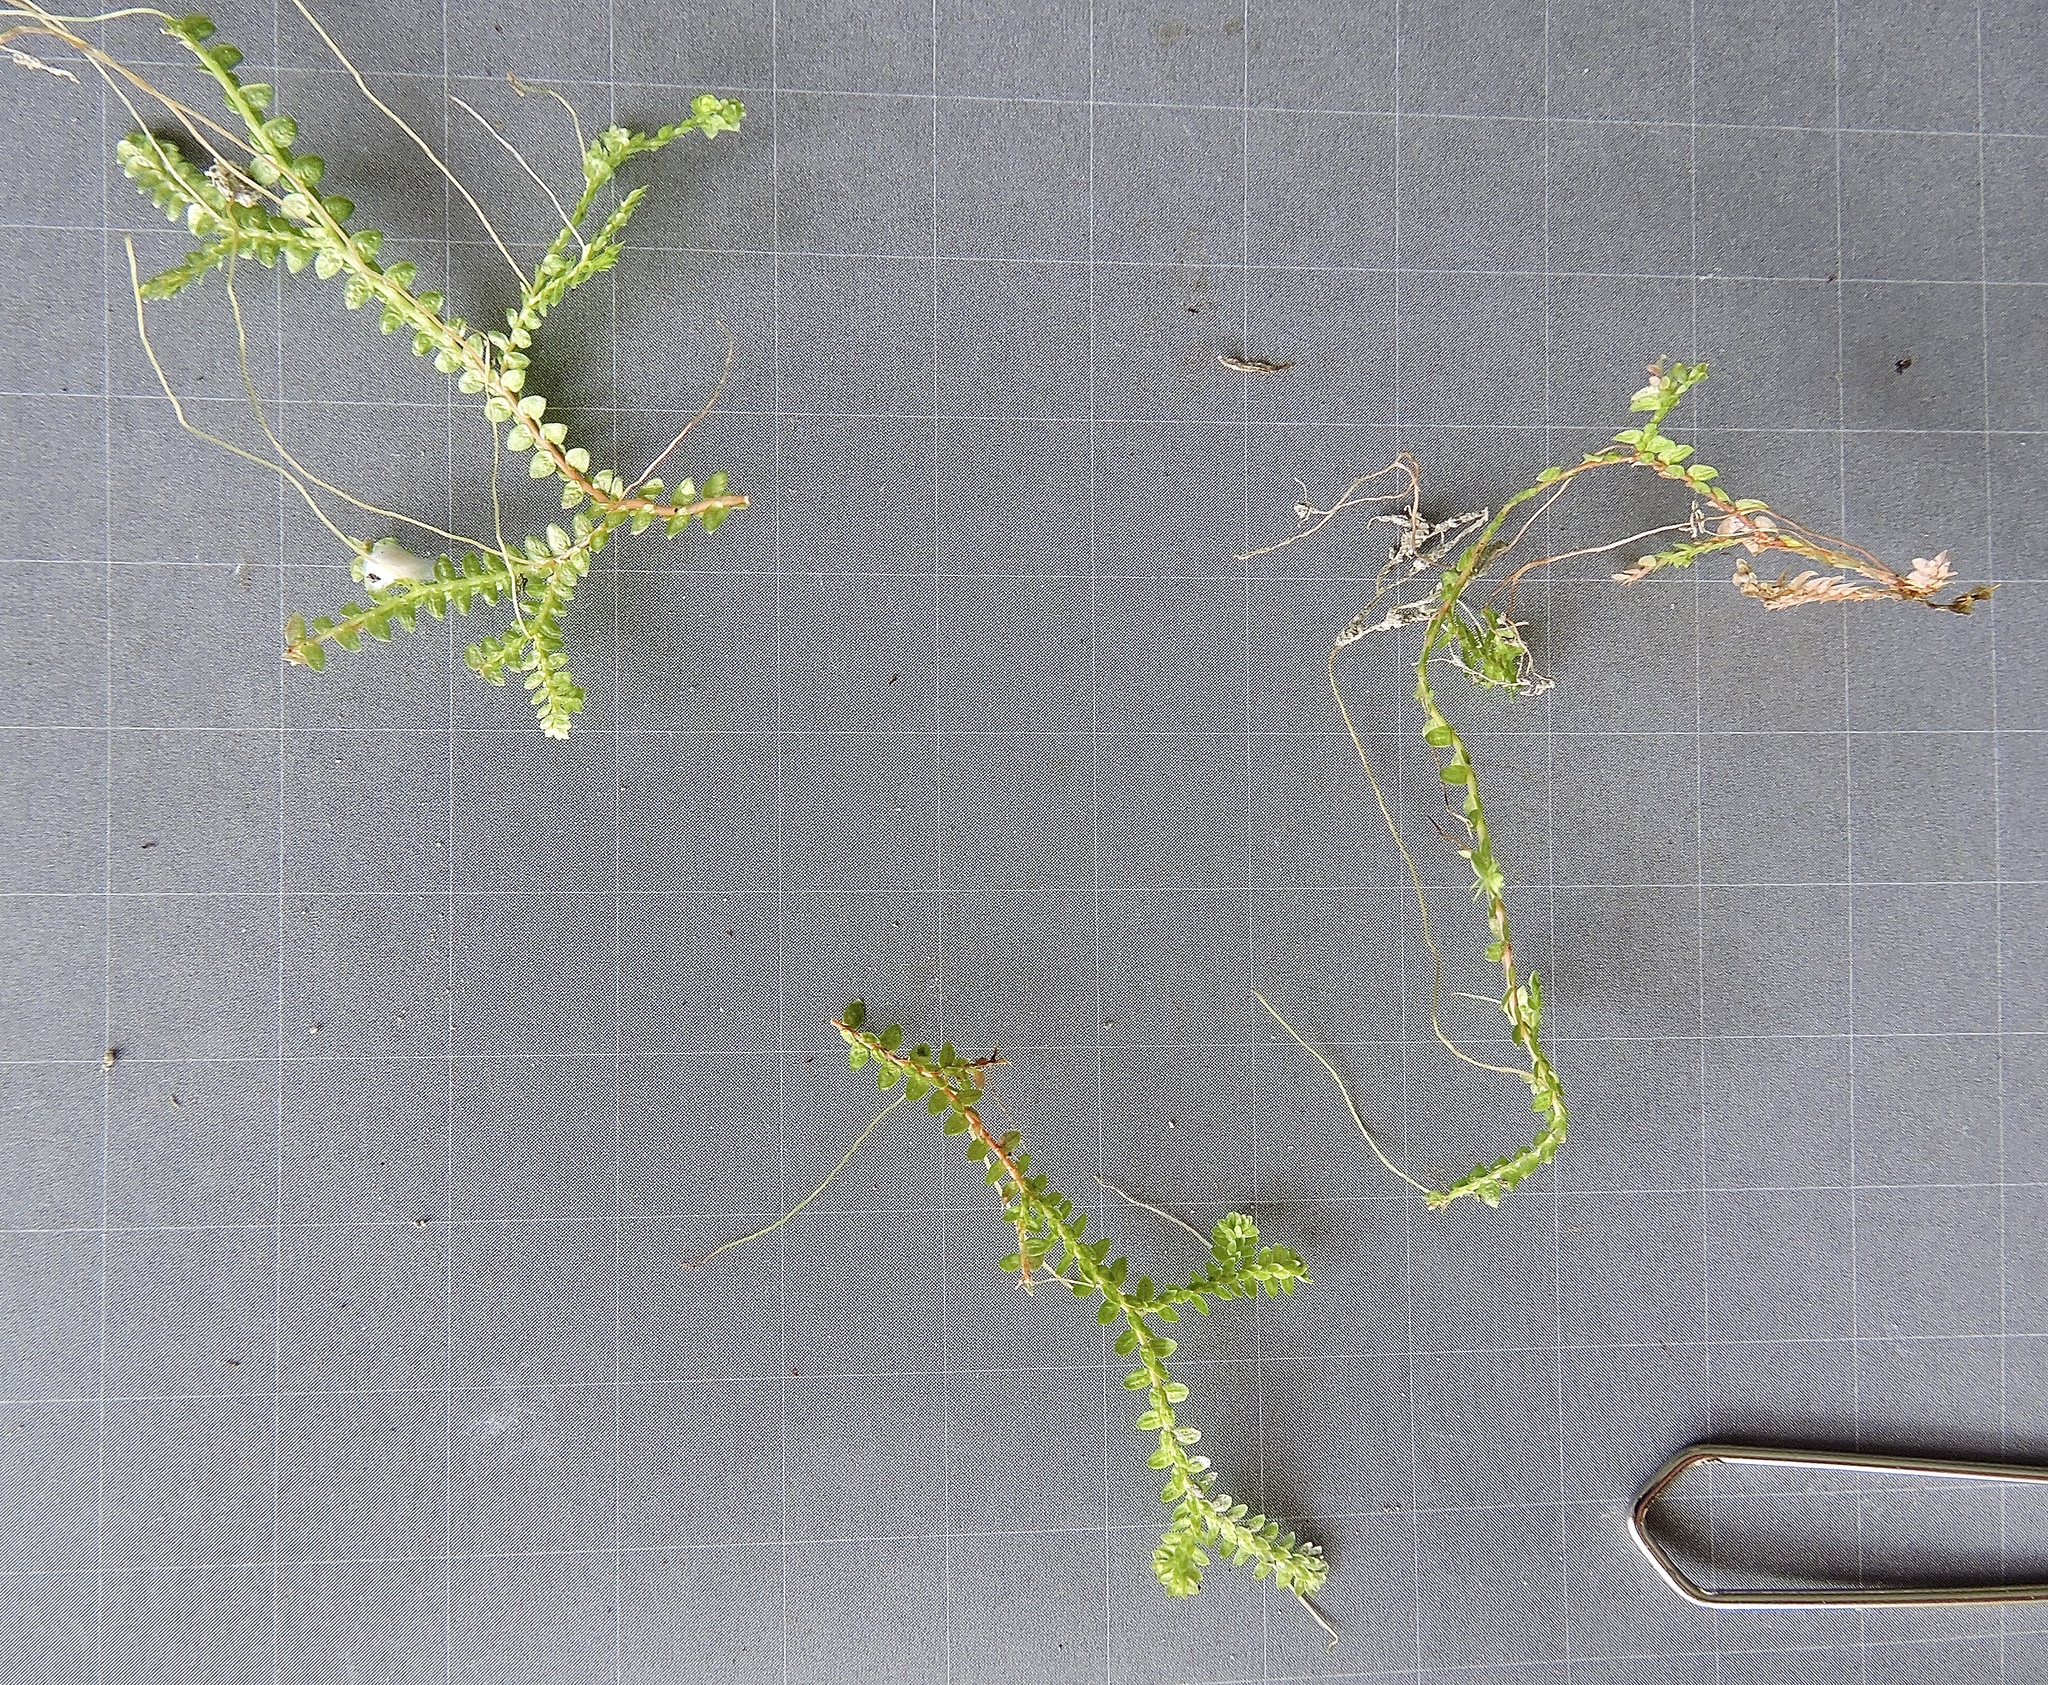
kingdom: Plantae
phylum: Tracheophyta
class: Lycopodiopsida
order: Selaginellales
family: Selaginellaceae
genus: Selaginella
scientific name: Selaginella helvetica
